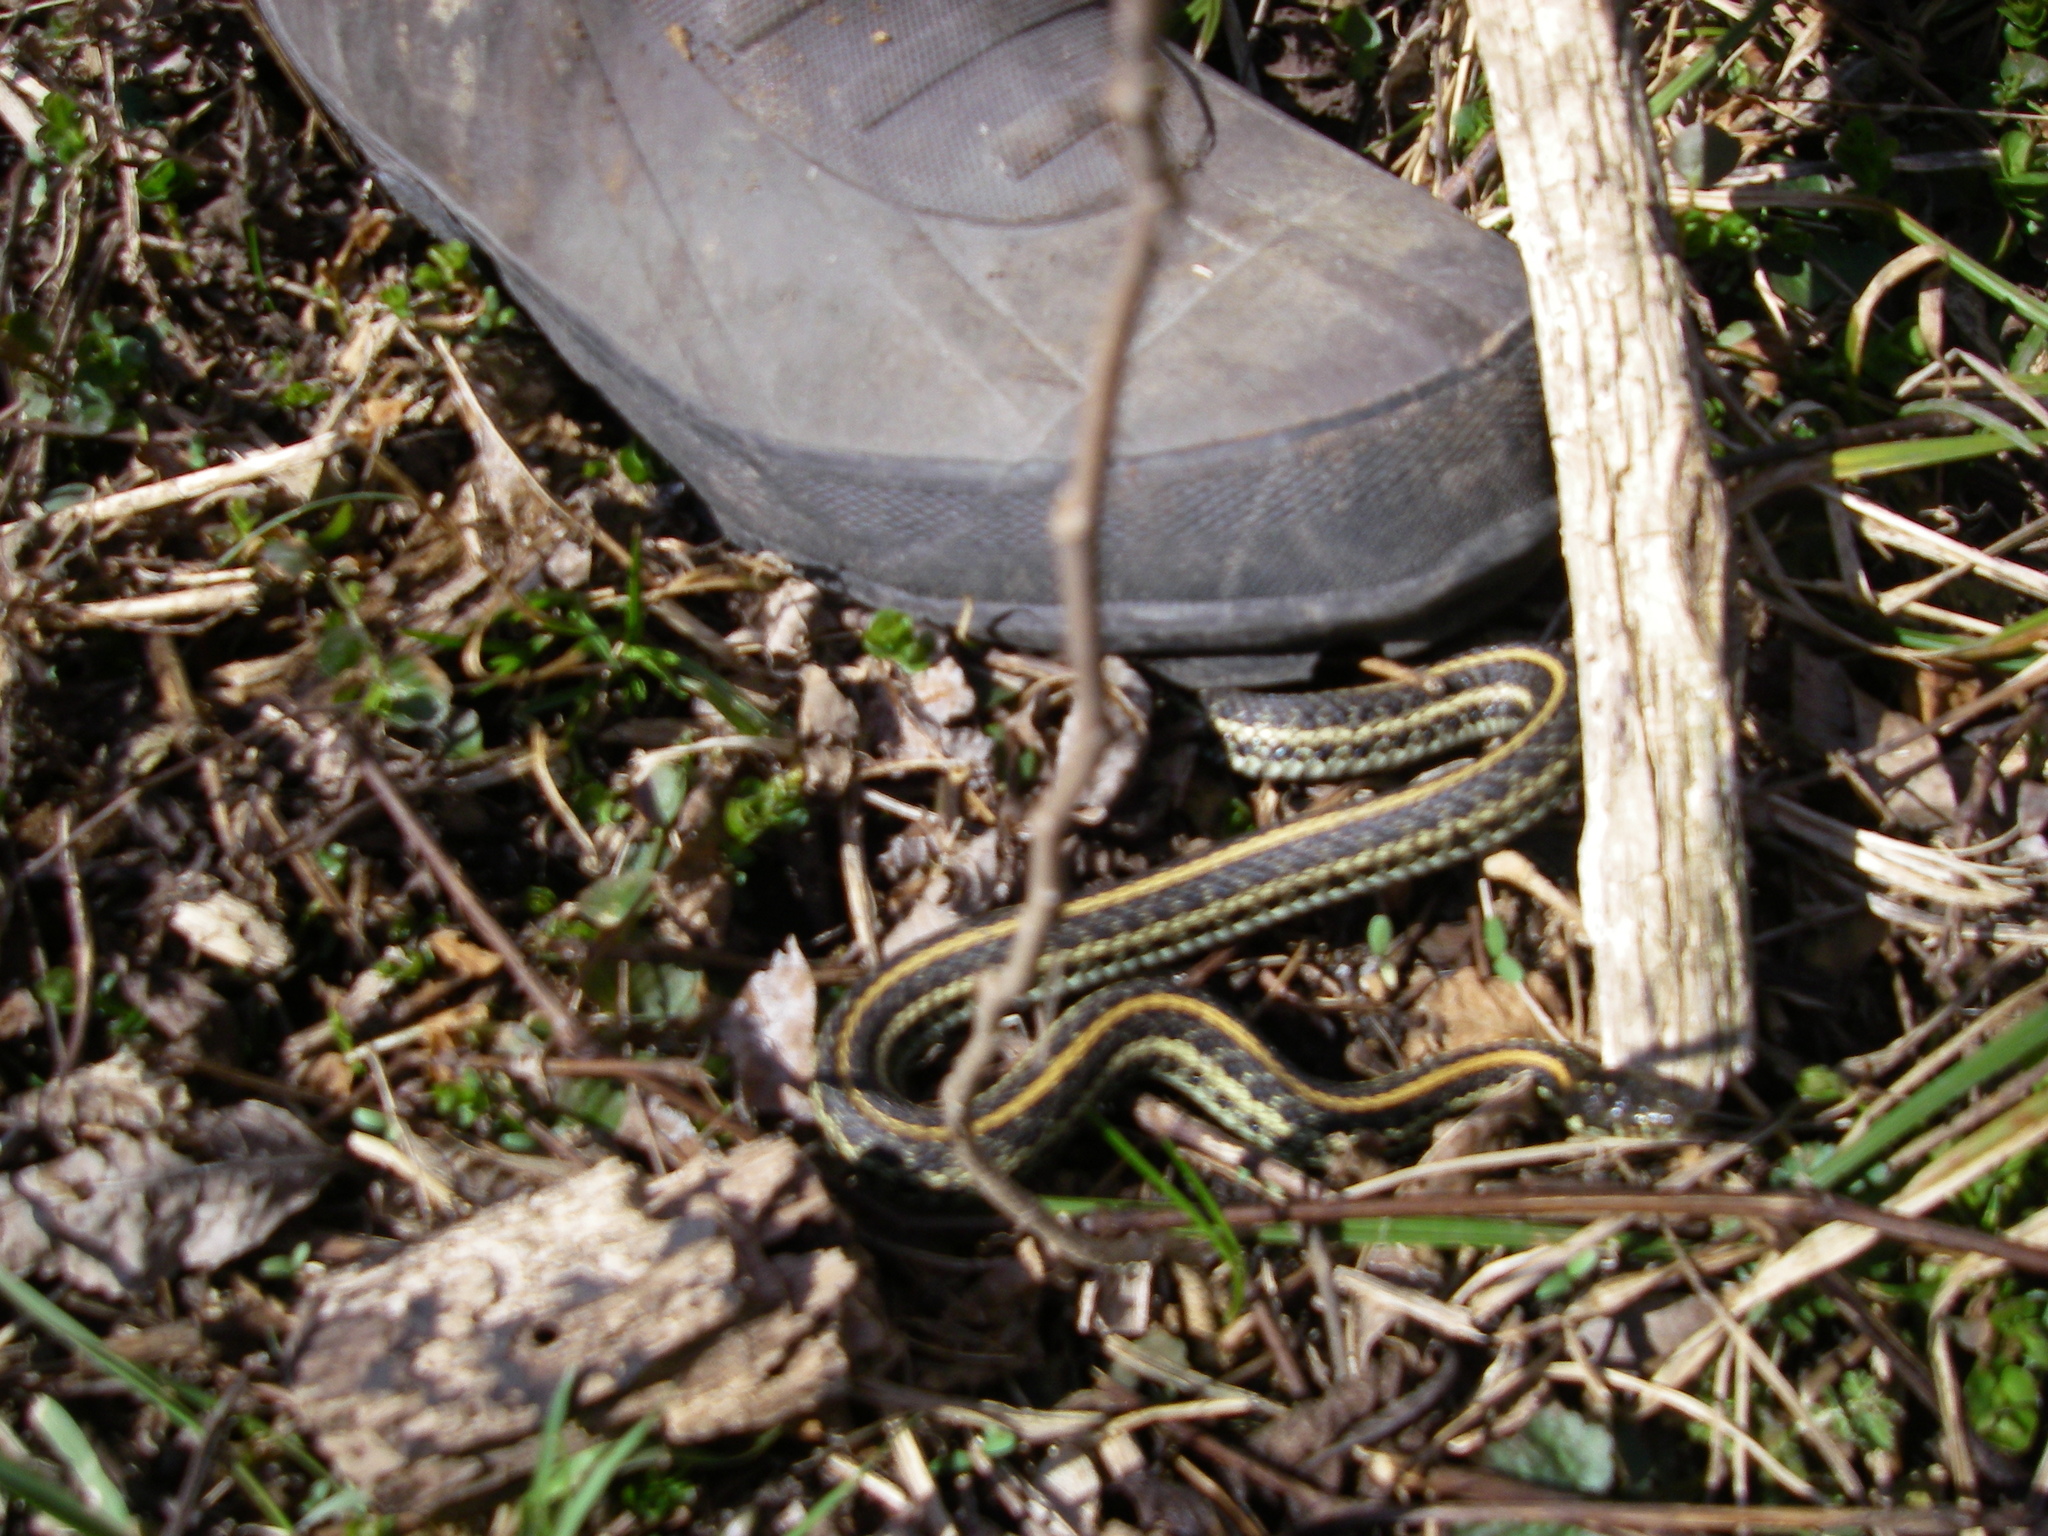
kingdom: Animalia
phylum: Chordata
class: Squamata
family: Colubridae
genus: Thamnophis
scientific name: Thamnophis radix
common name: Plains garter snake
